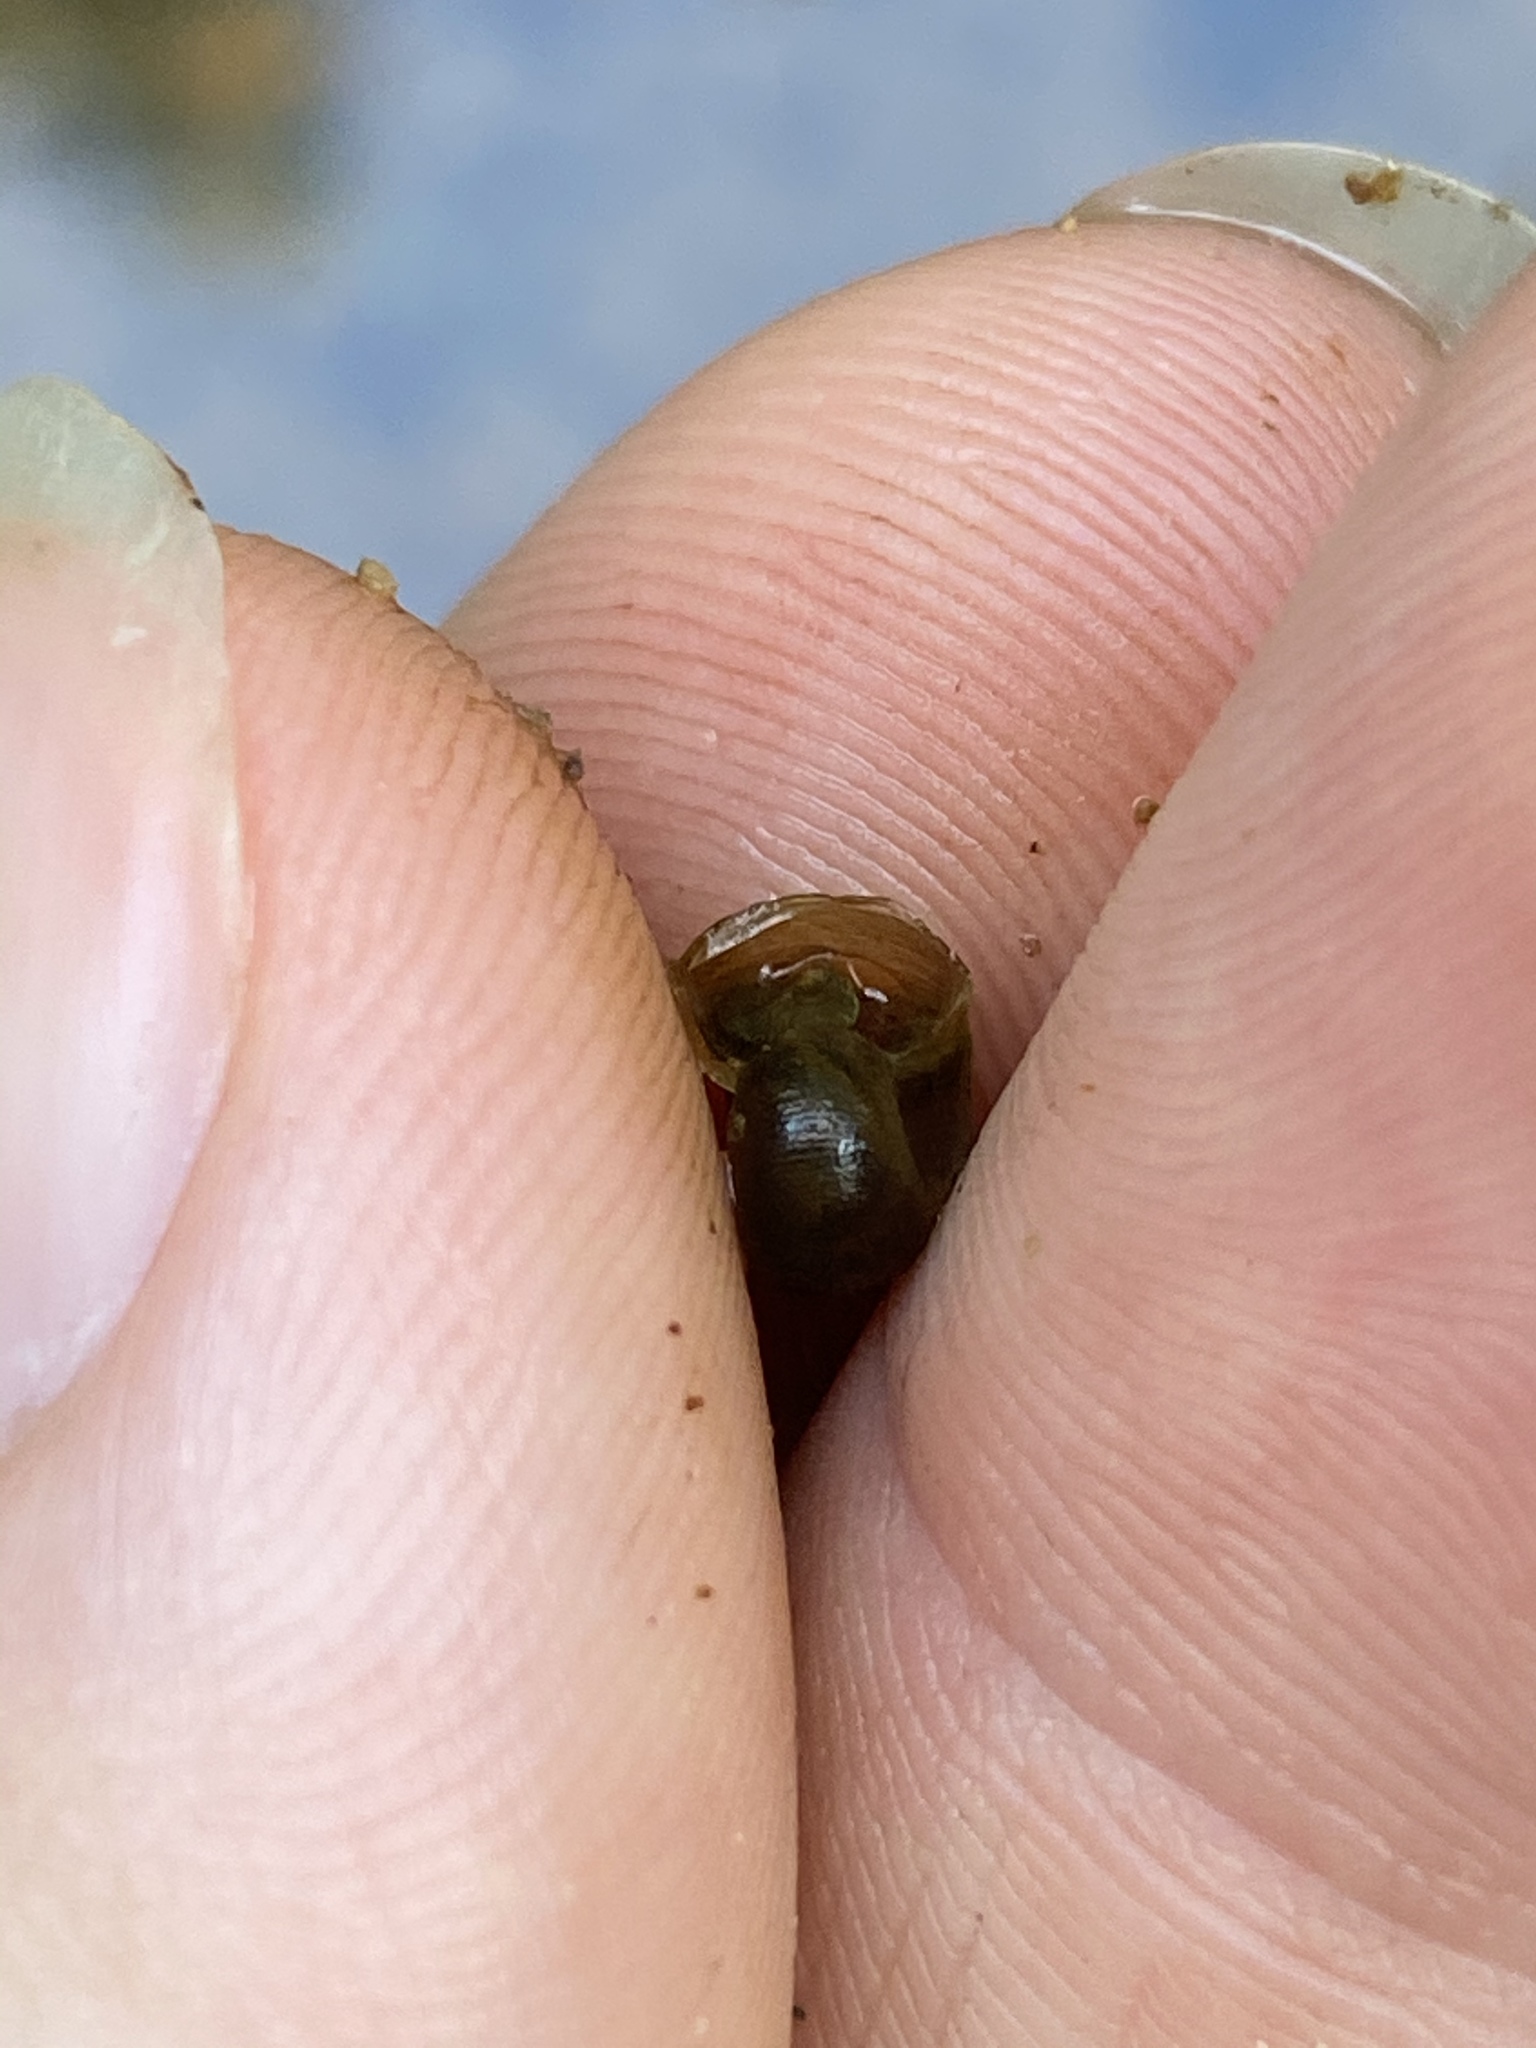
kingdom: Animalia
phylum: Mollusca
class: Gastropoda
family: Planorbidae
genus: Planorbella
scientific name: Planorbella trivolvis
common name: Marsh rams-horn
